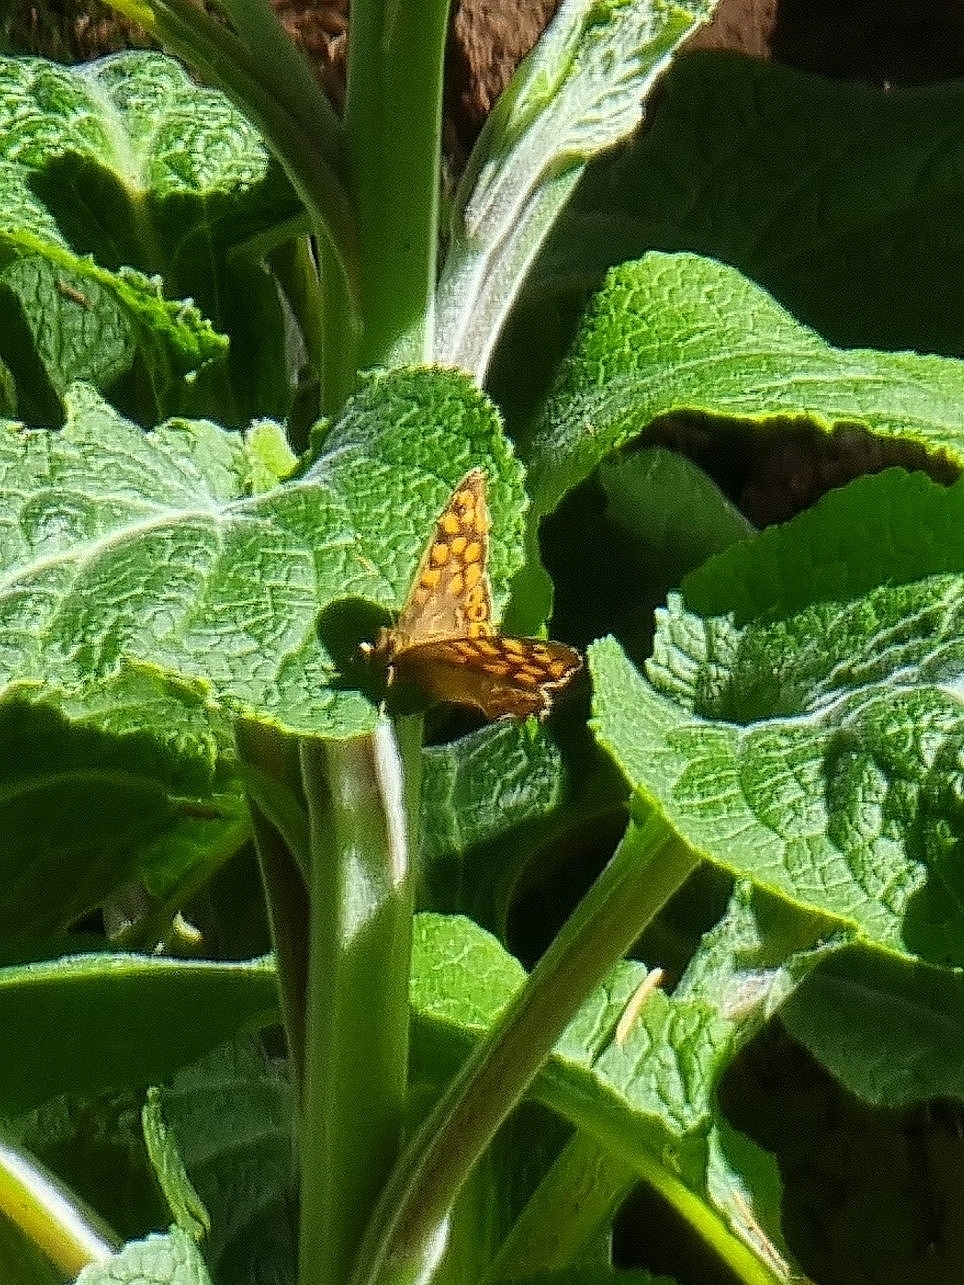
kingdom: Animalia
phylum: Arthropoda
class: Insecta
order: Lepidoptera
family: Nymphalidae
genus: Pararge
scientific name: Pararge aegeria
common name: Speckled wood
